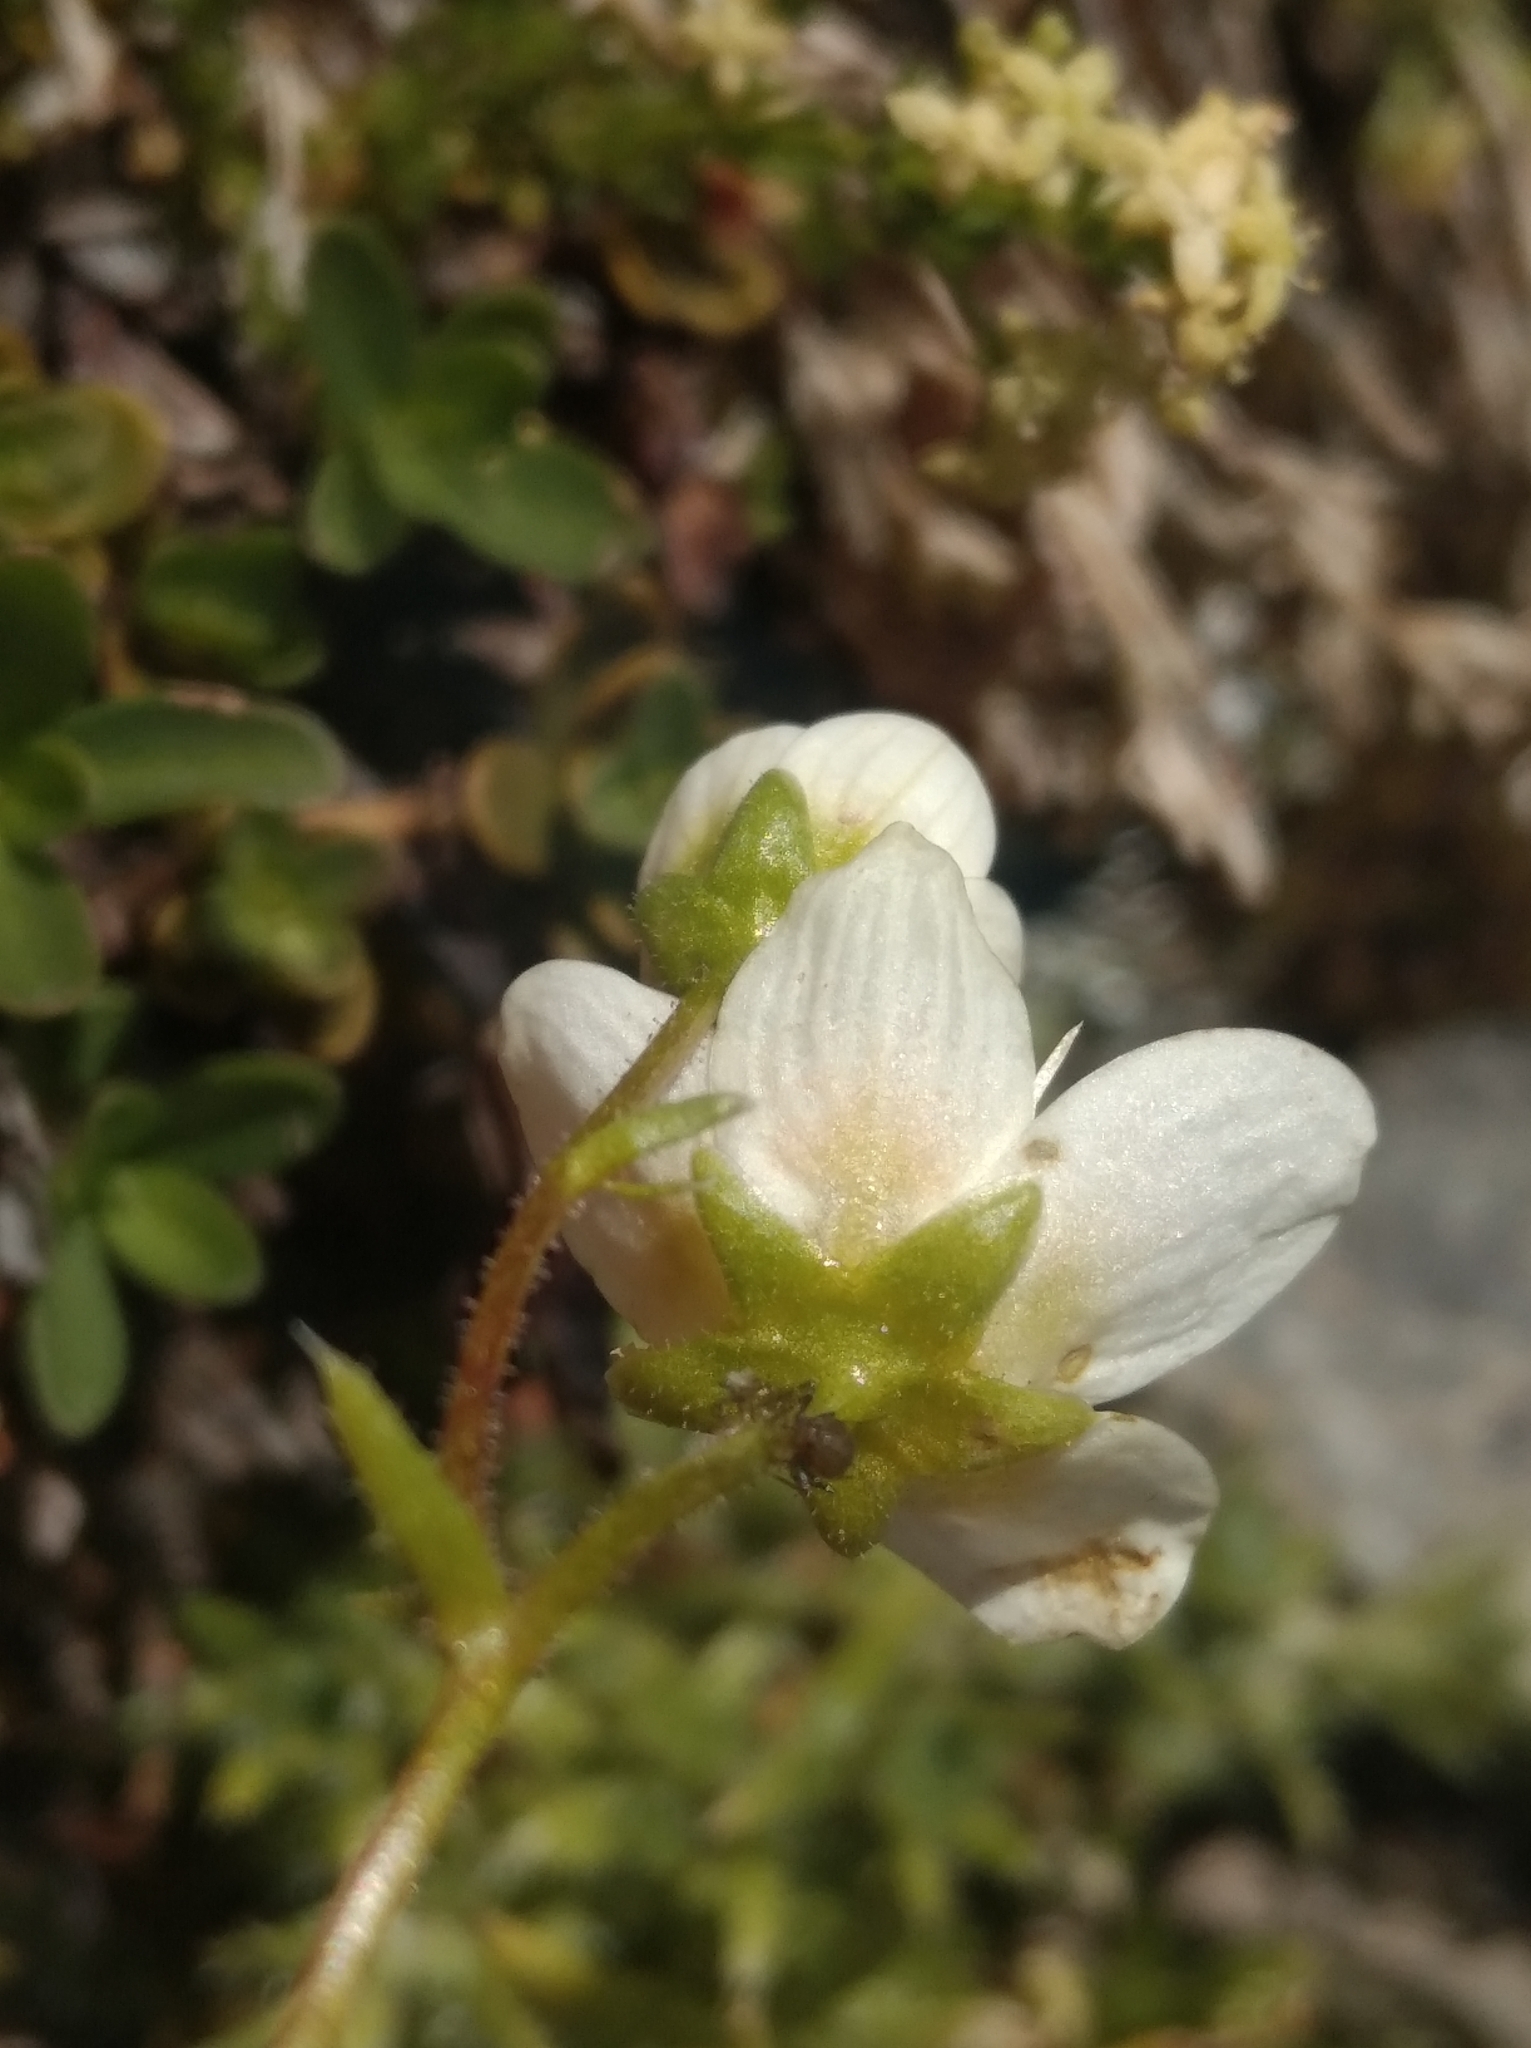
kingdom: Plantae
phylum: Tracheophyta
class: Magnoliopsida
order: Saxifragales
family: Saxifragaceae
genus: Saxifraga
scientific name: Saxifraga aspera
